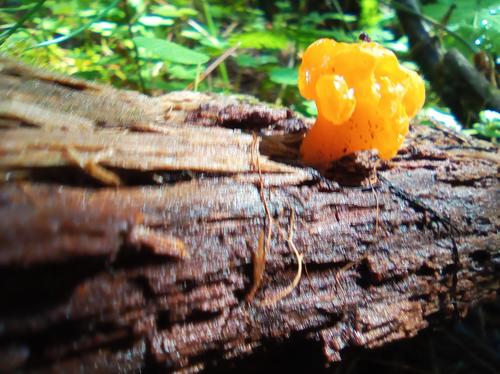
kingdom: Fungi
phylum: Basidiomycota
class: Dacrymycetes
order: Dacrymycetales
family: Dacrymycetaceae
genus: Dacrymyces
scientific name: Dacrymyces chrysospermus
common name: Orange jelly spot
